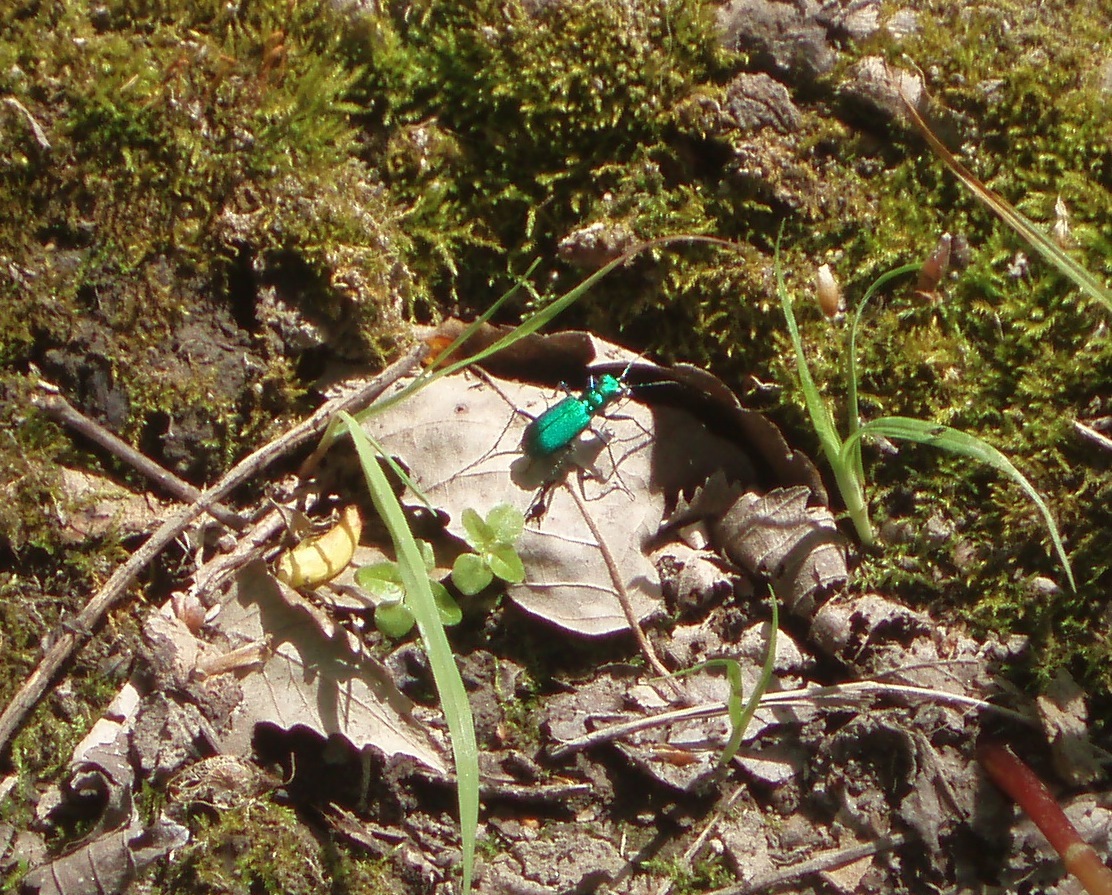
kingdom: Animalia
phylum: Arthropoda
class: Insecta
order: Coleoptera
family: Carabidae
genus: Cicindela
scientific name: Cicindela sexguttata
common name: Six-spotted tiger beetle
